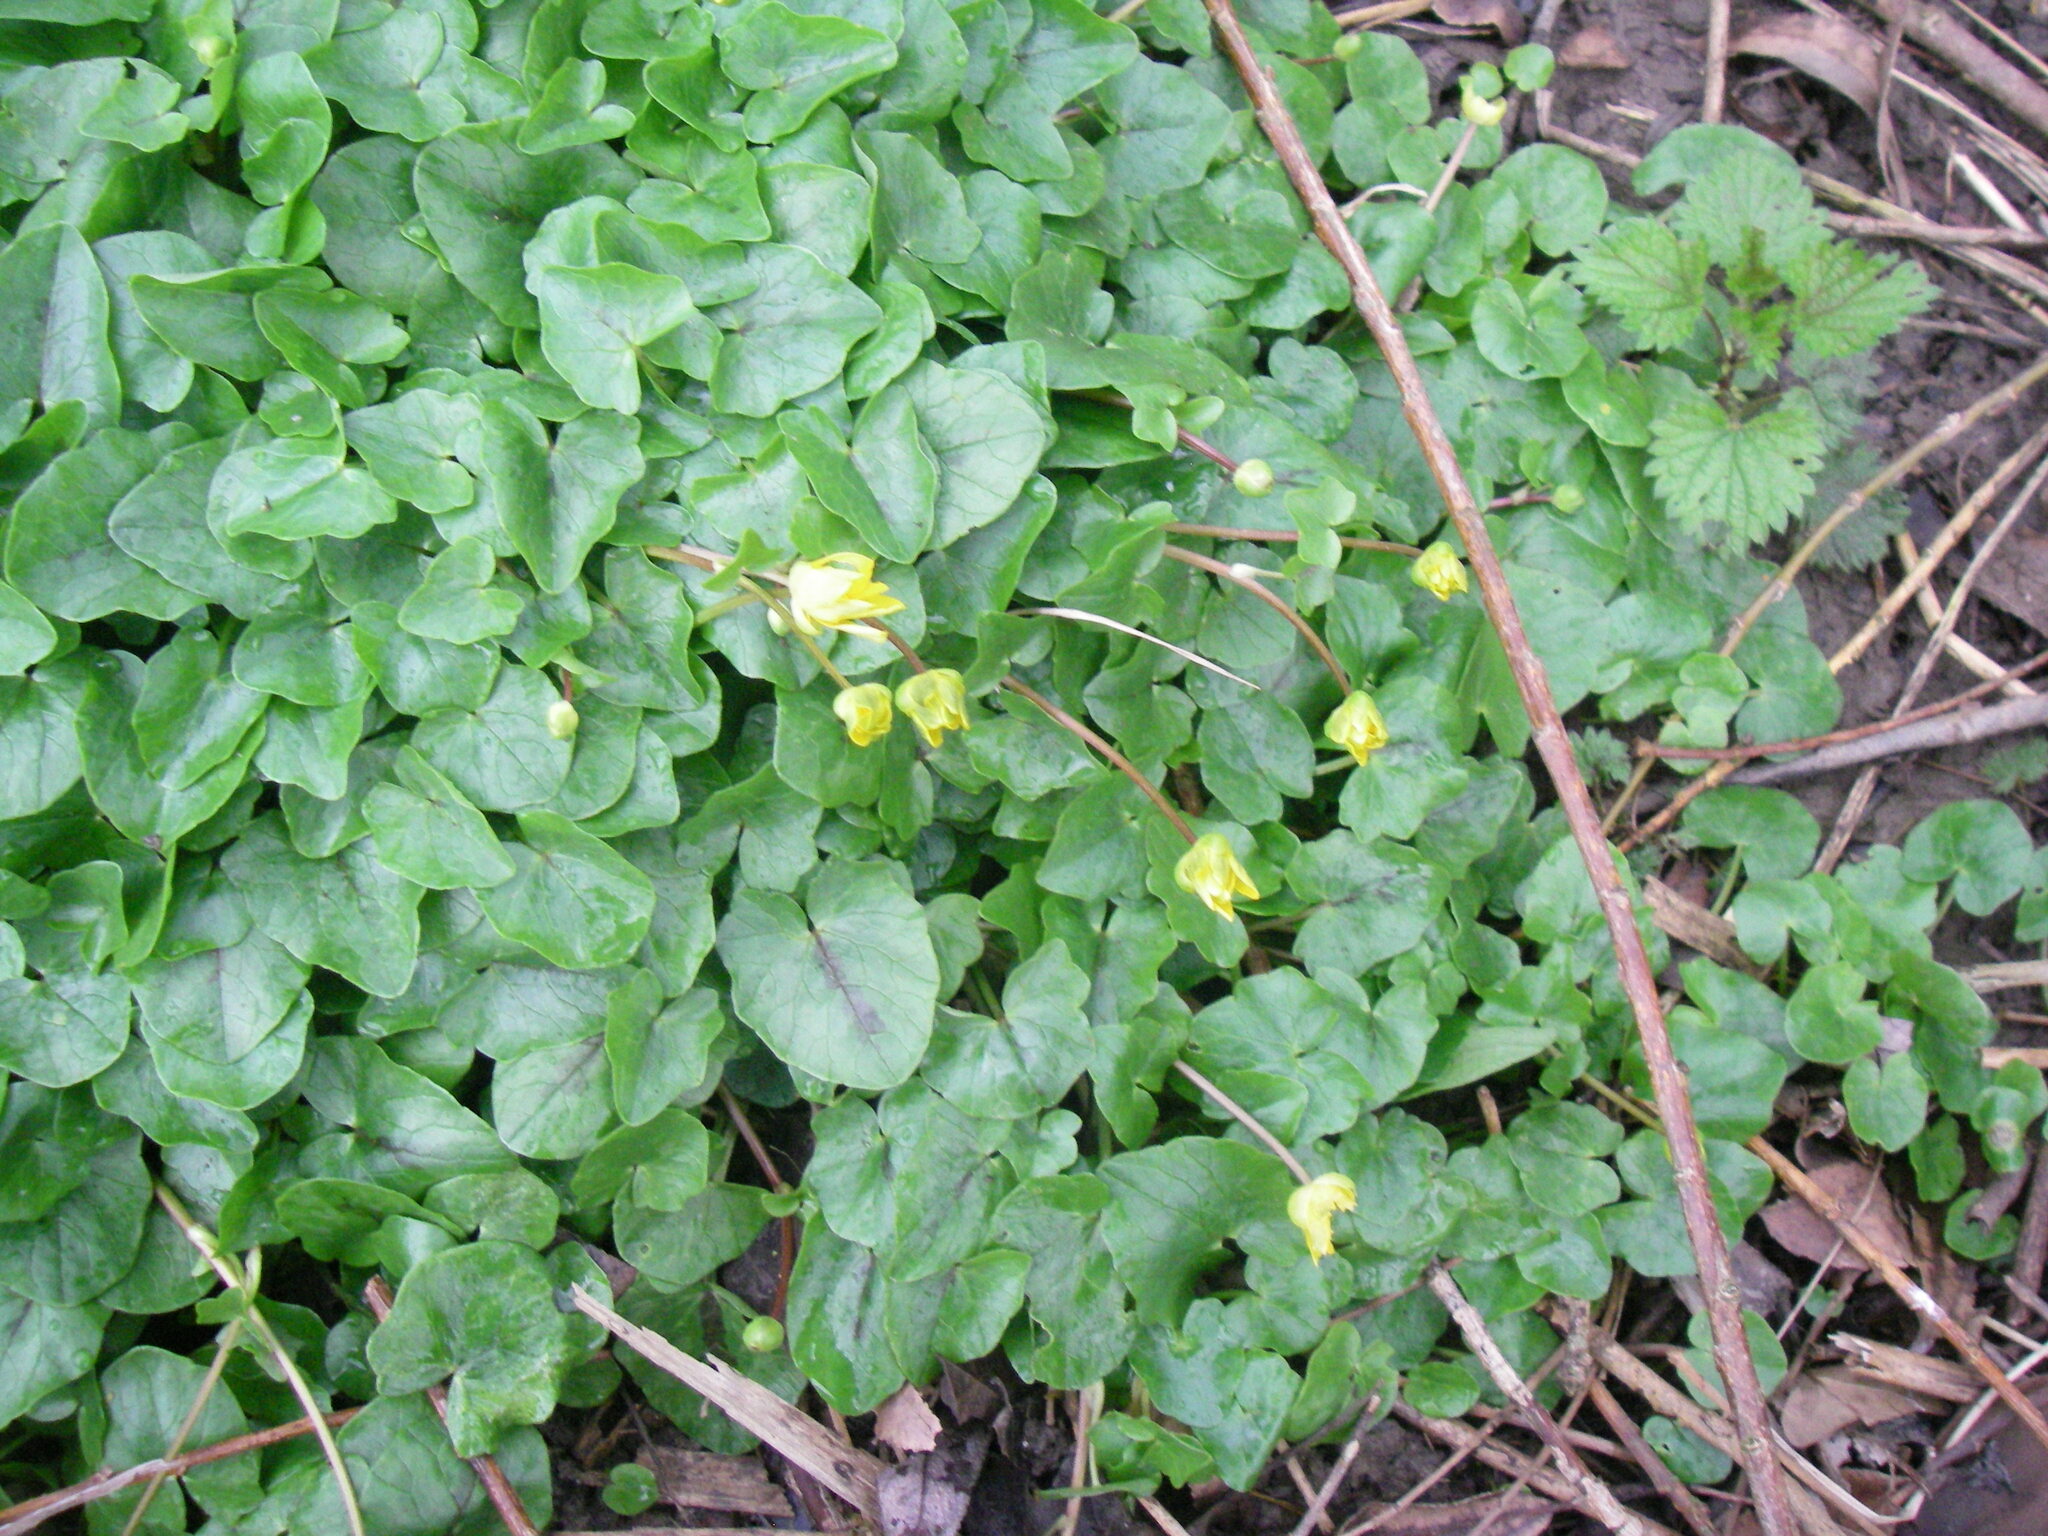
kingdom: Plantae
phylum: Tracheophyta
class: Magnoliopsida
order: Ranunculales
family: Ranunculaceae
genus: Ficaria
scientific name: Ficaria verna
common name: Lesser celandine
